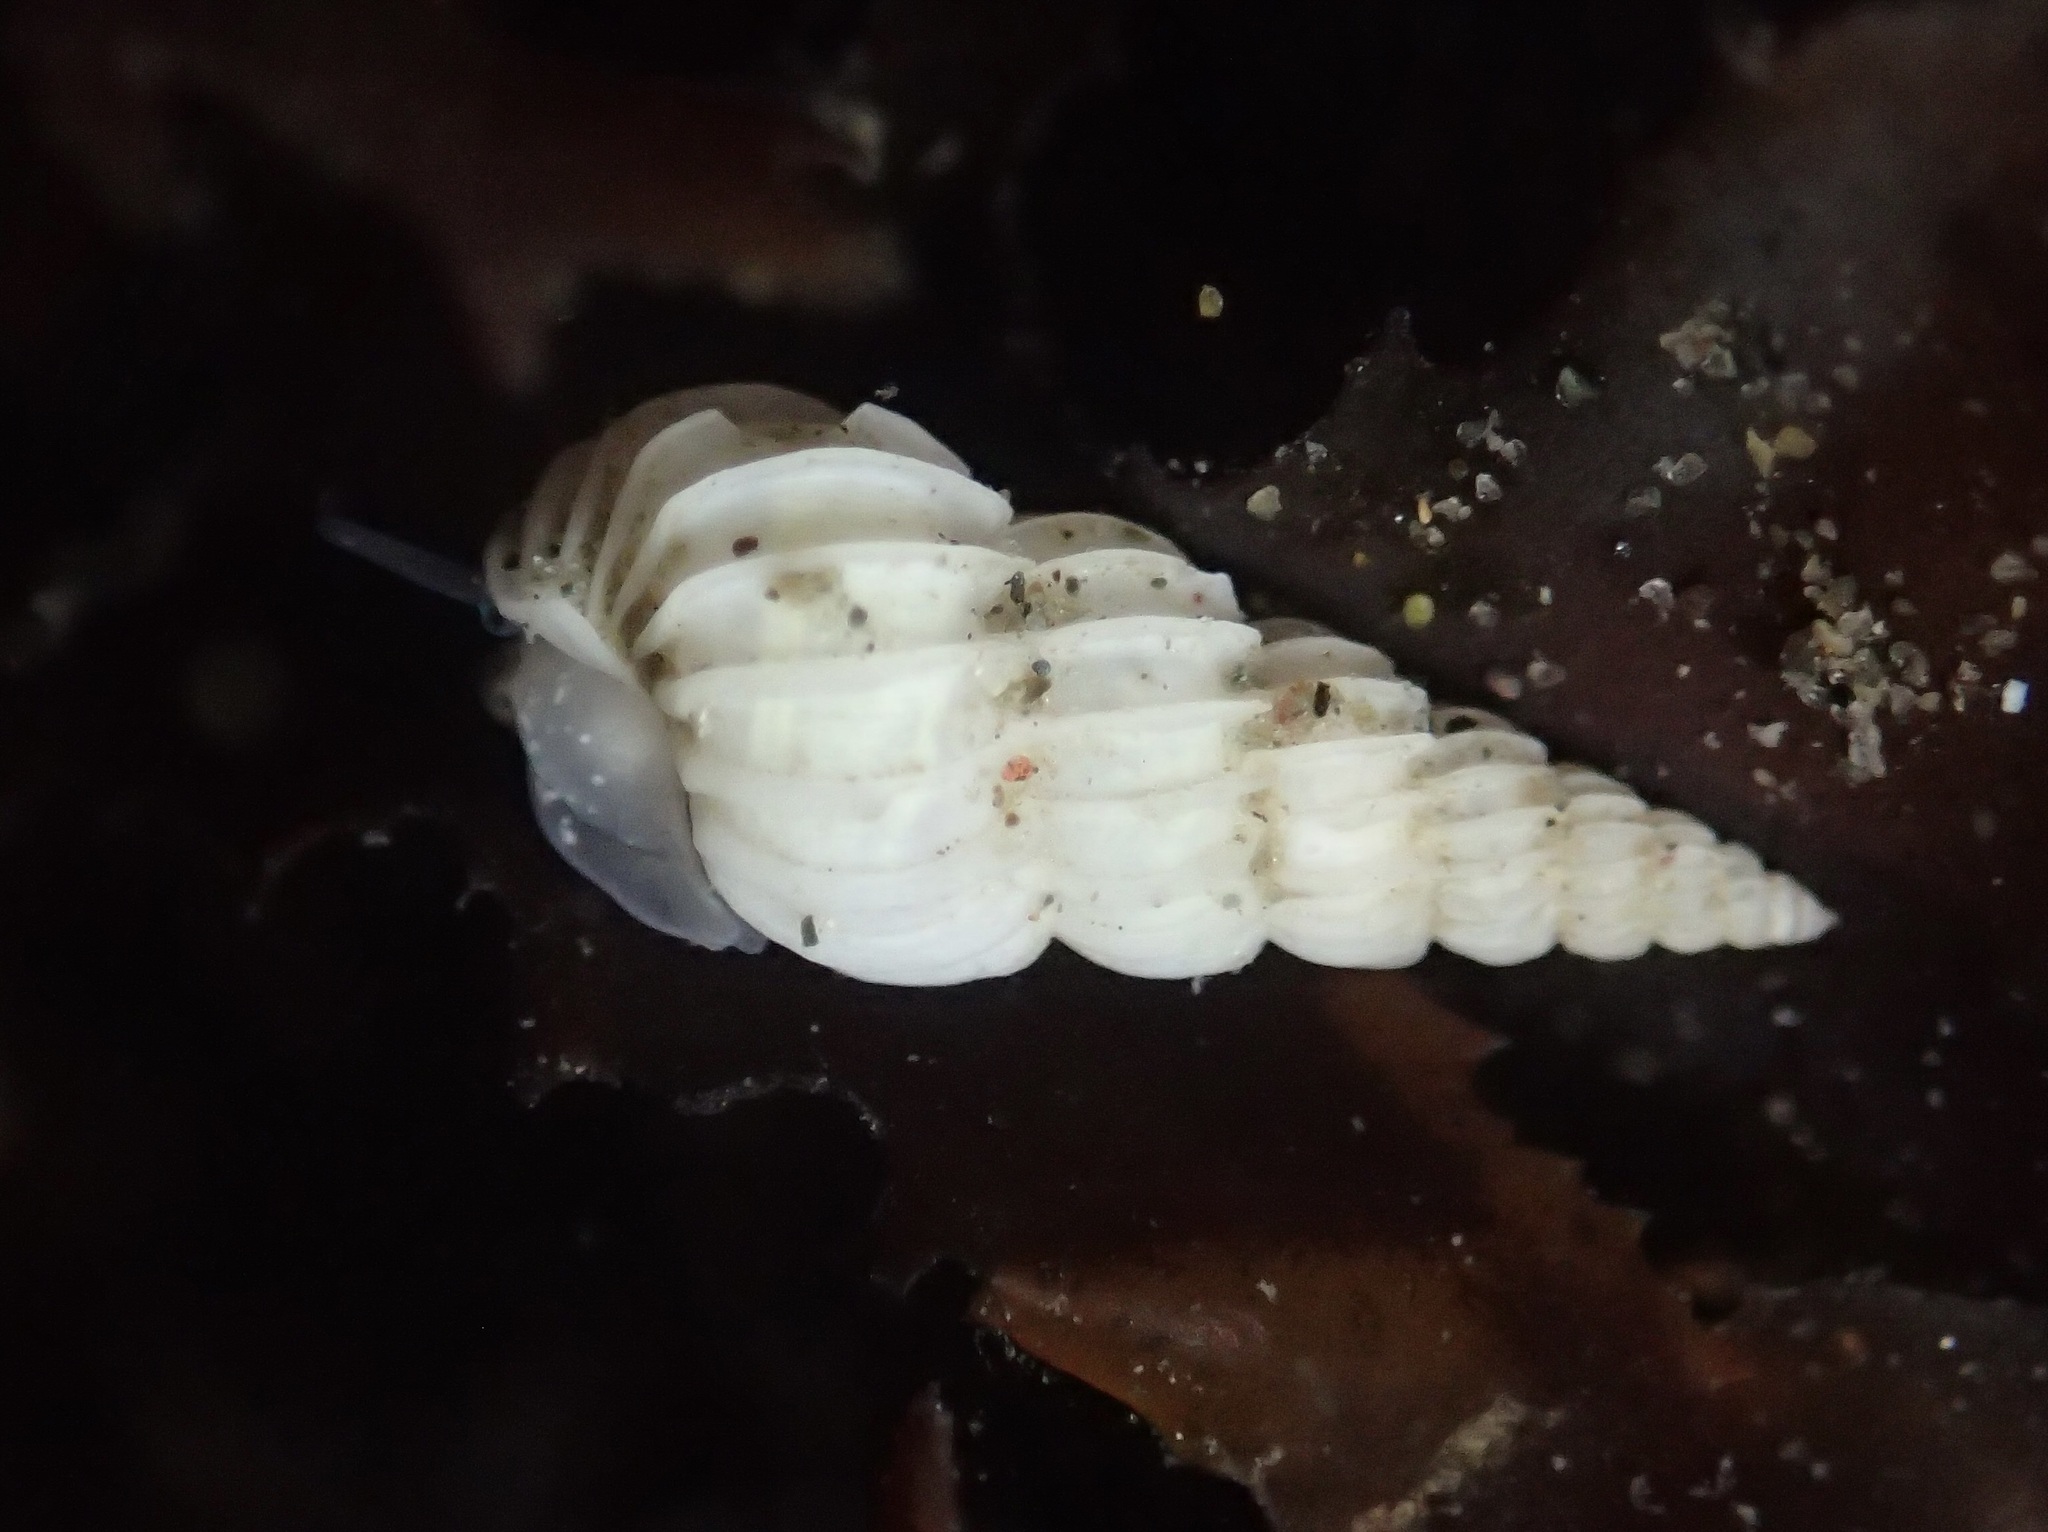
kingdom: Animalia
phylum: Mollusca
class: Gastropoda
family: Epitoniidae
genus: Epitonium
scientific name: Epitonium tinctum
